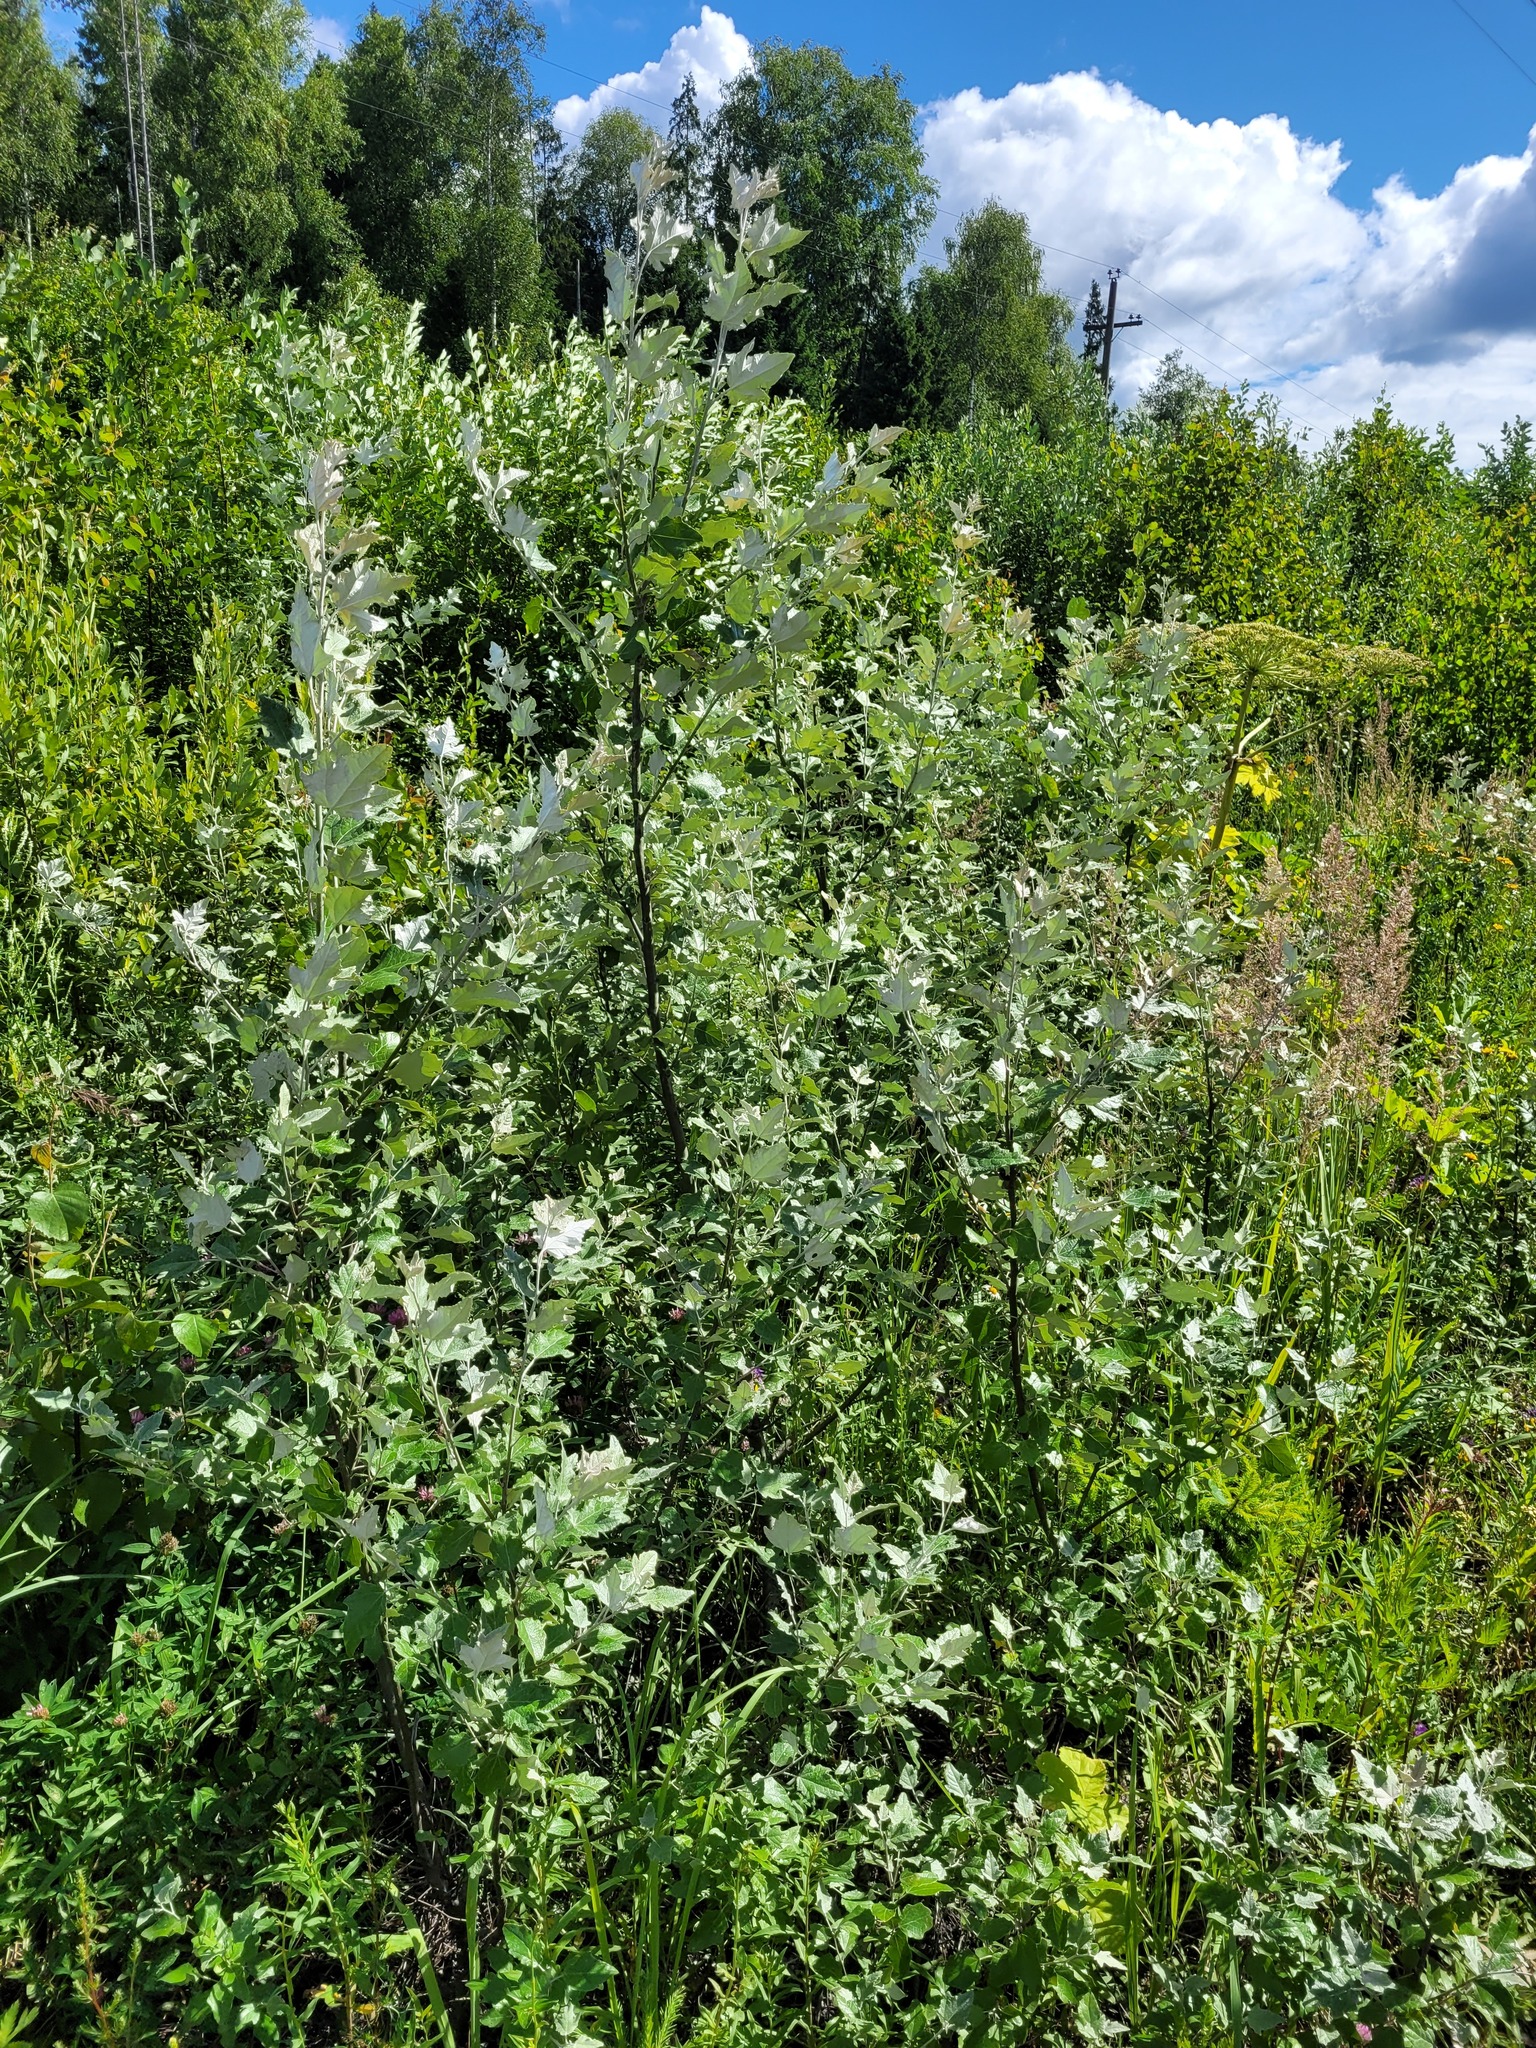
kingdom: Plantae
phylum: Tracheophyta
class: Magnoliopsida
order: Malpighiales
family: Salicaceae
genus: Populus
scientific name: Populus alba
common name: White poplar
